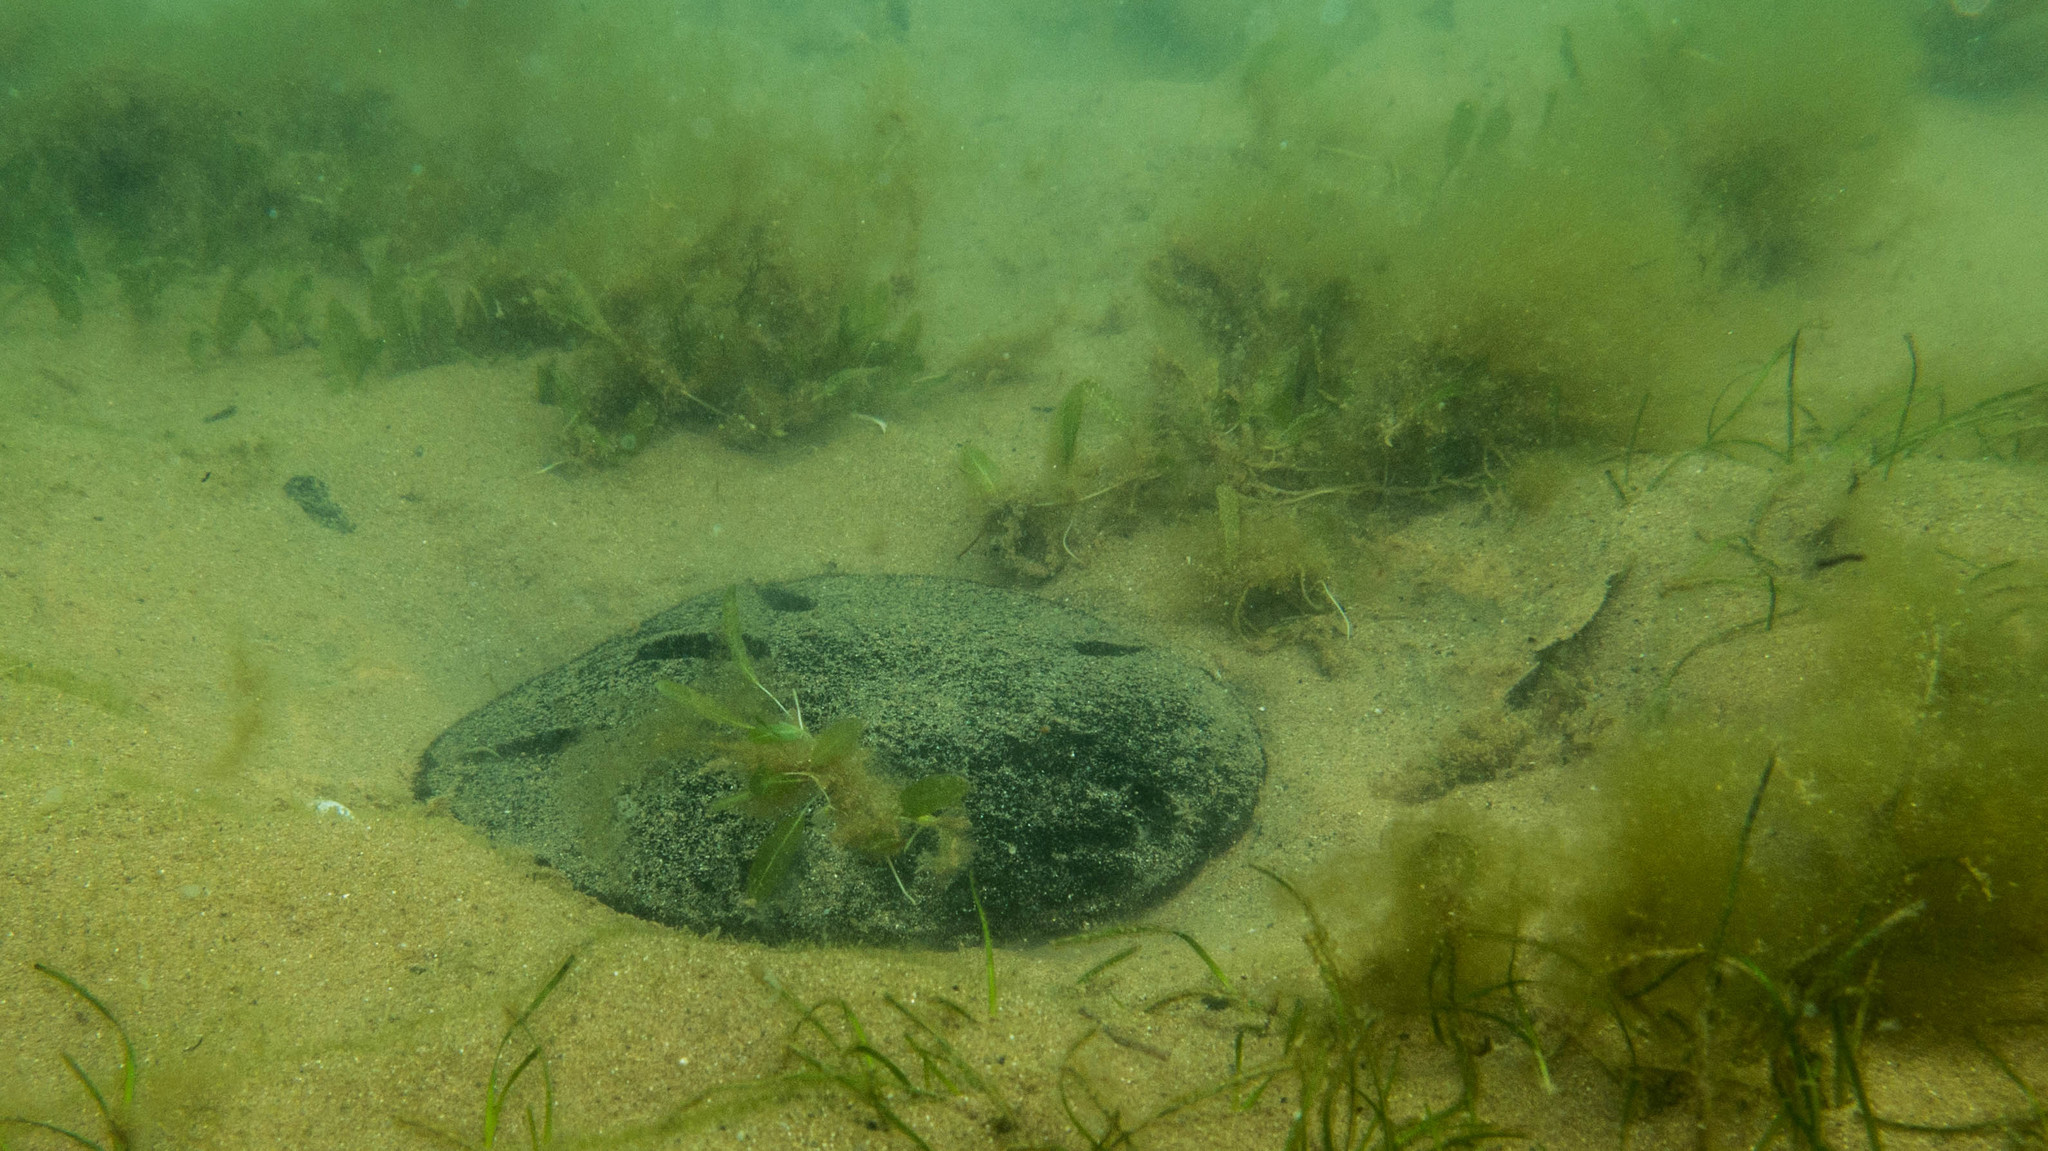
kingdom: Animalia
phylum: Echinodermata
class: Echinoidea
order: Echinolampadacea
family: Mellitidae
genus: Encope
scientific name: Encope emarginata
